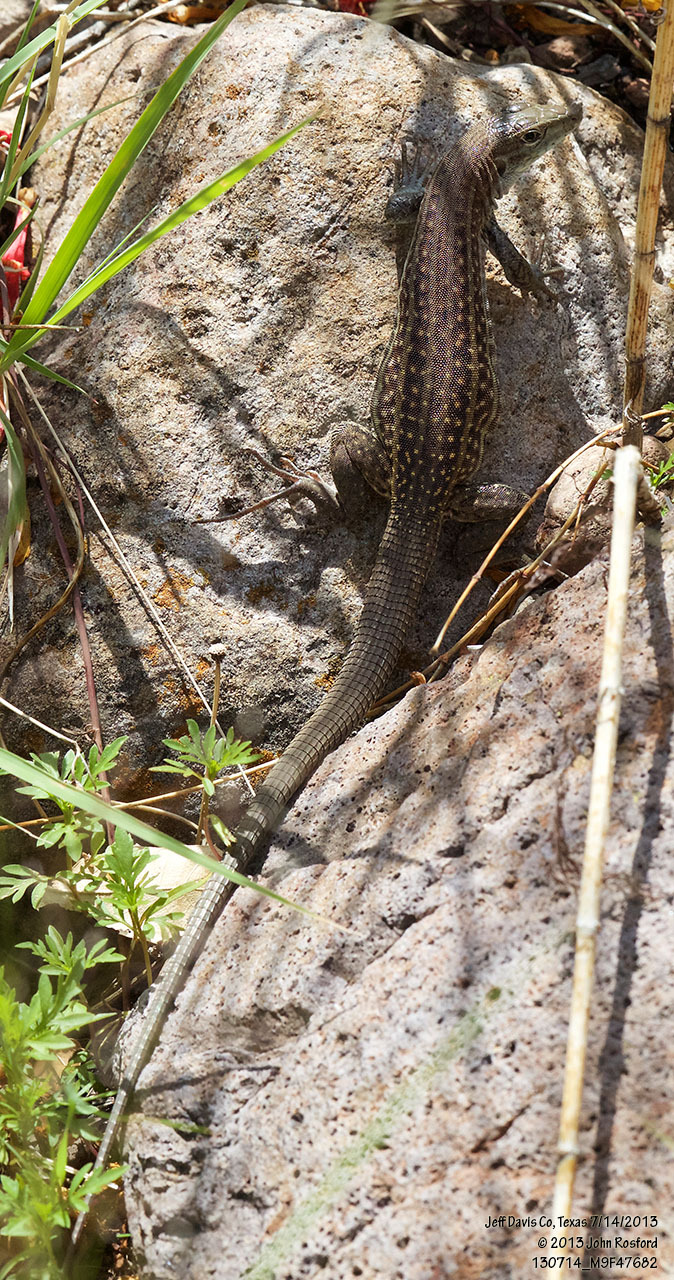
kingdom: Animalia
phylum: Chordata
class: Squamata
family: Teiidae
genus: Aspidoscelis
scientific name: Aspidoscelis exsanguis
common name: Chihuahuan spotted whiptail
